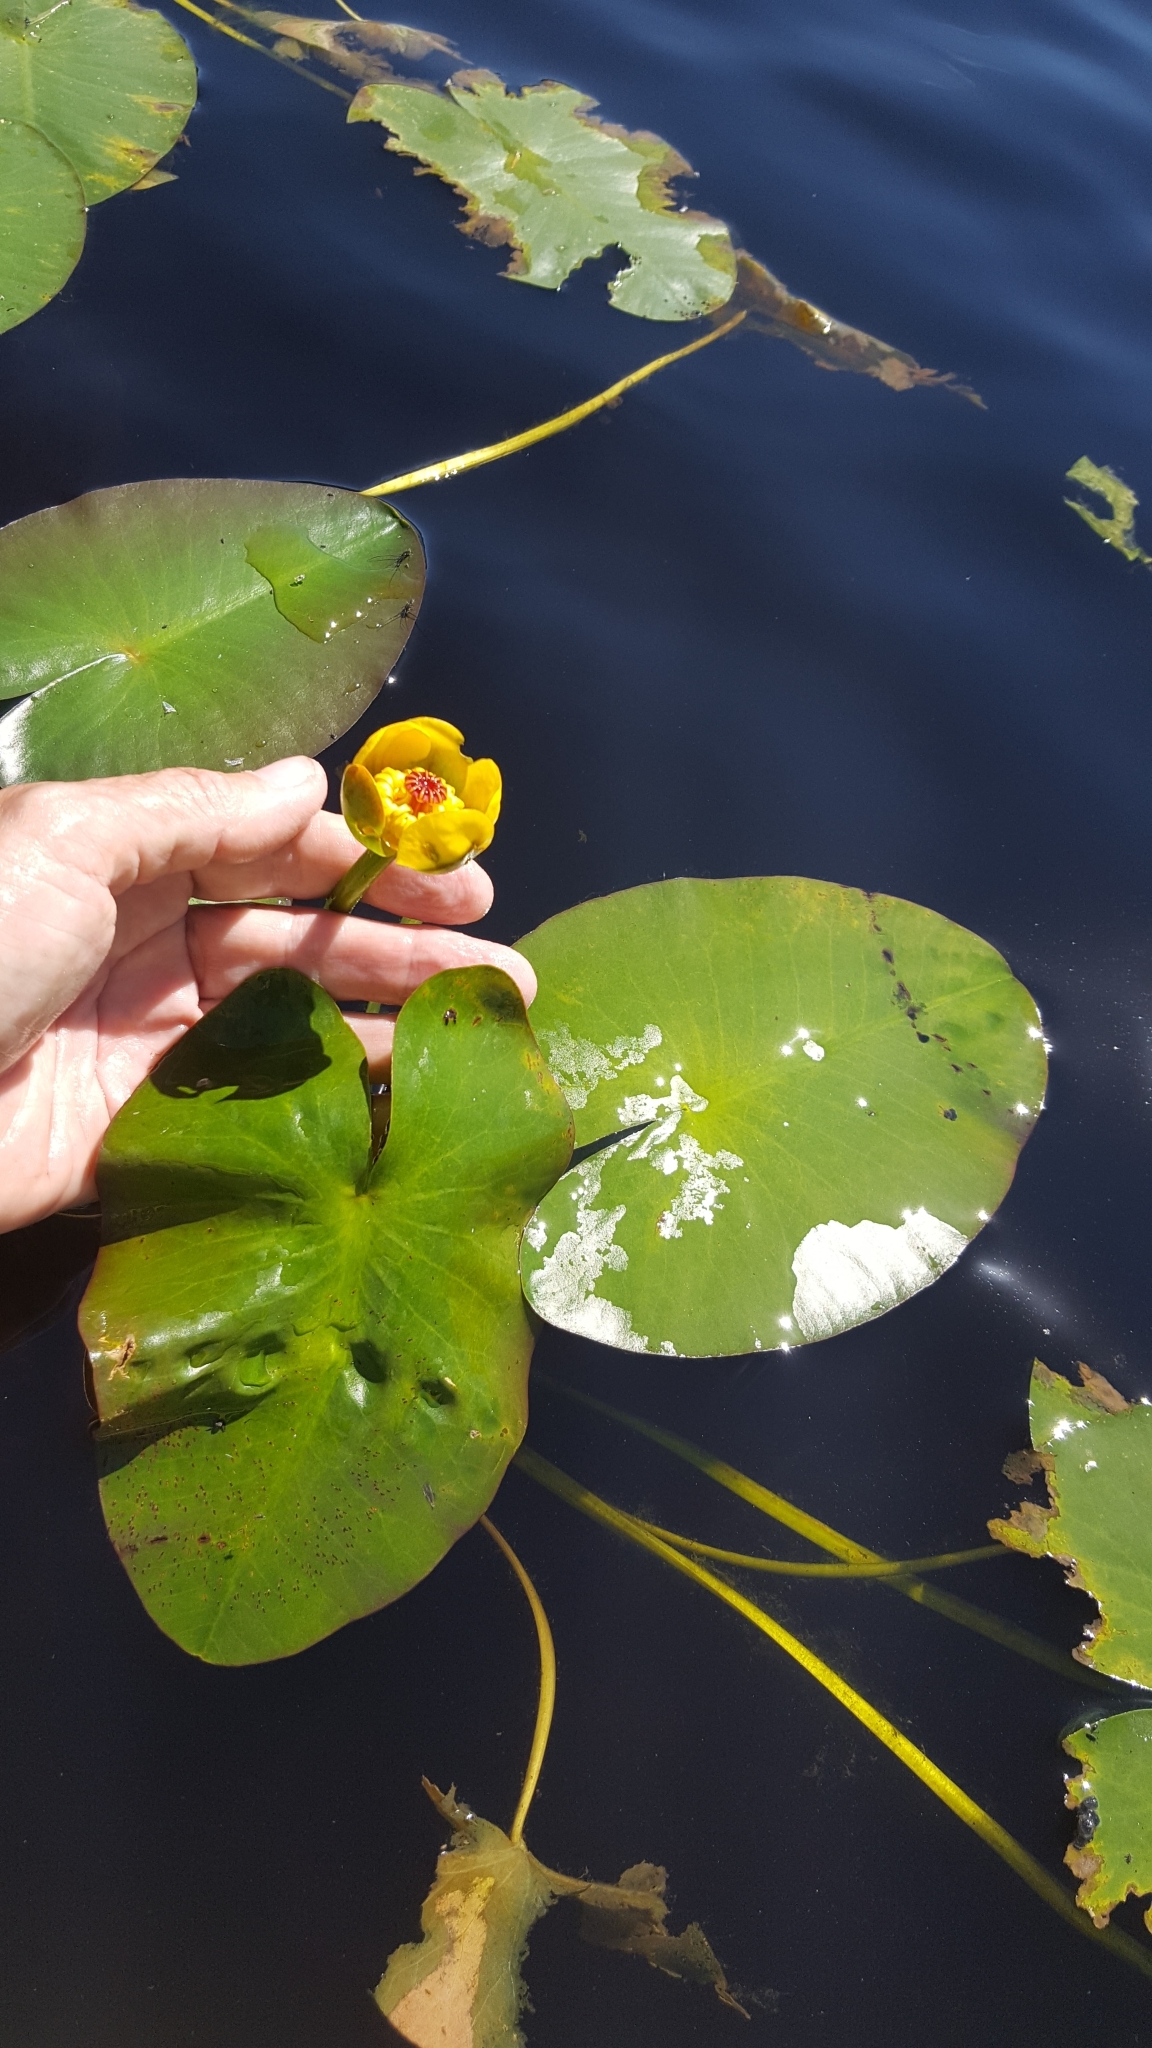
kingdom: Plantae
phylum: Tracheophyta
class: Magnoliopsida
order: Nymphaeales
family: Nymphaeaceae
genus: Nuphar
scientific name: Nuphar rubrodisca
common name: Yellow pond-lily
